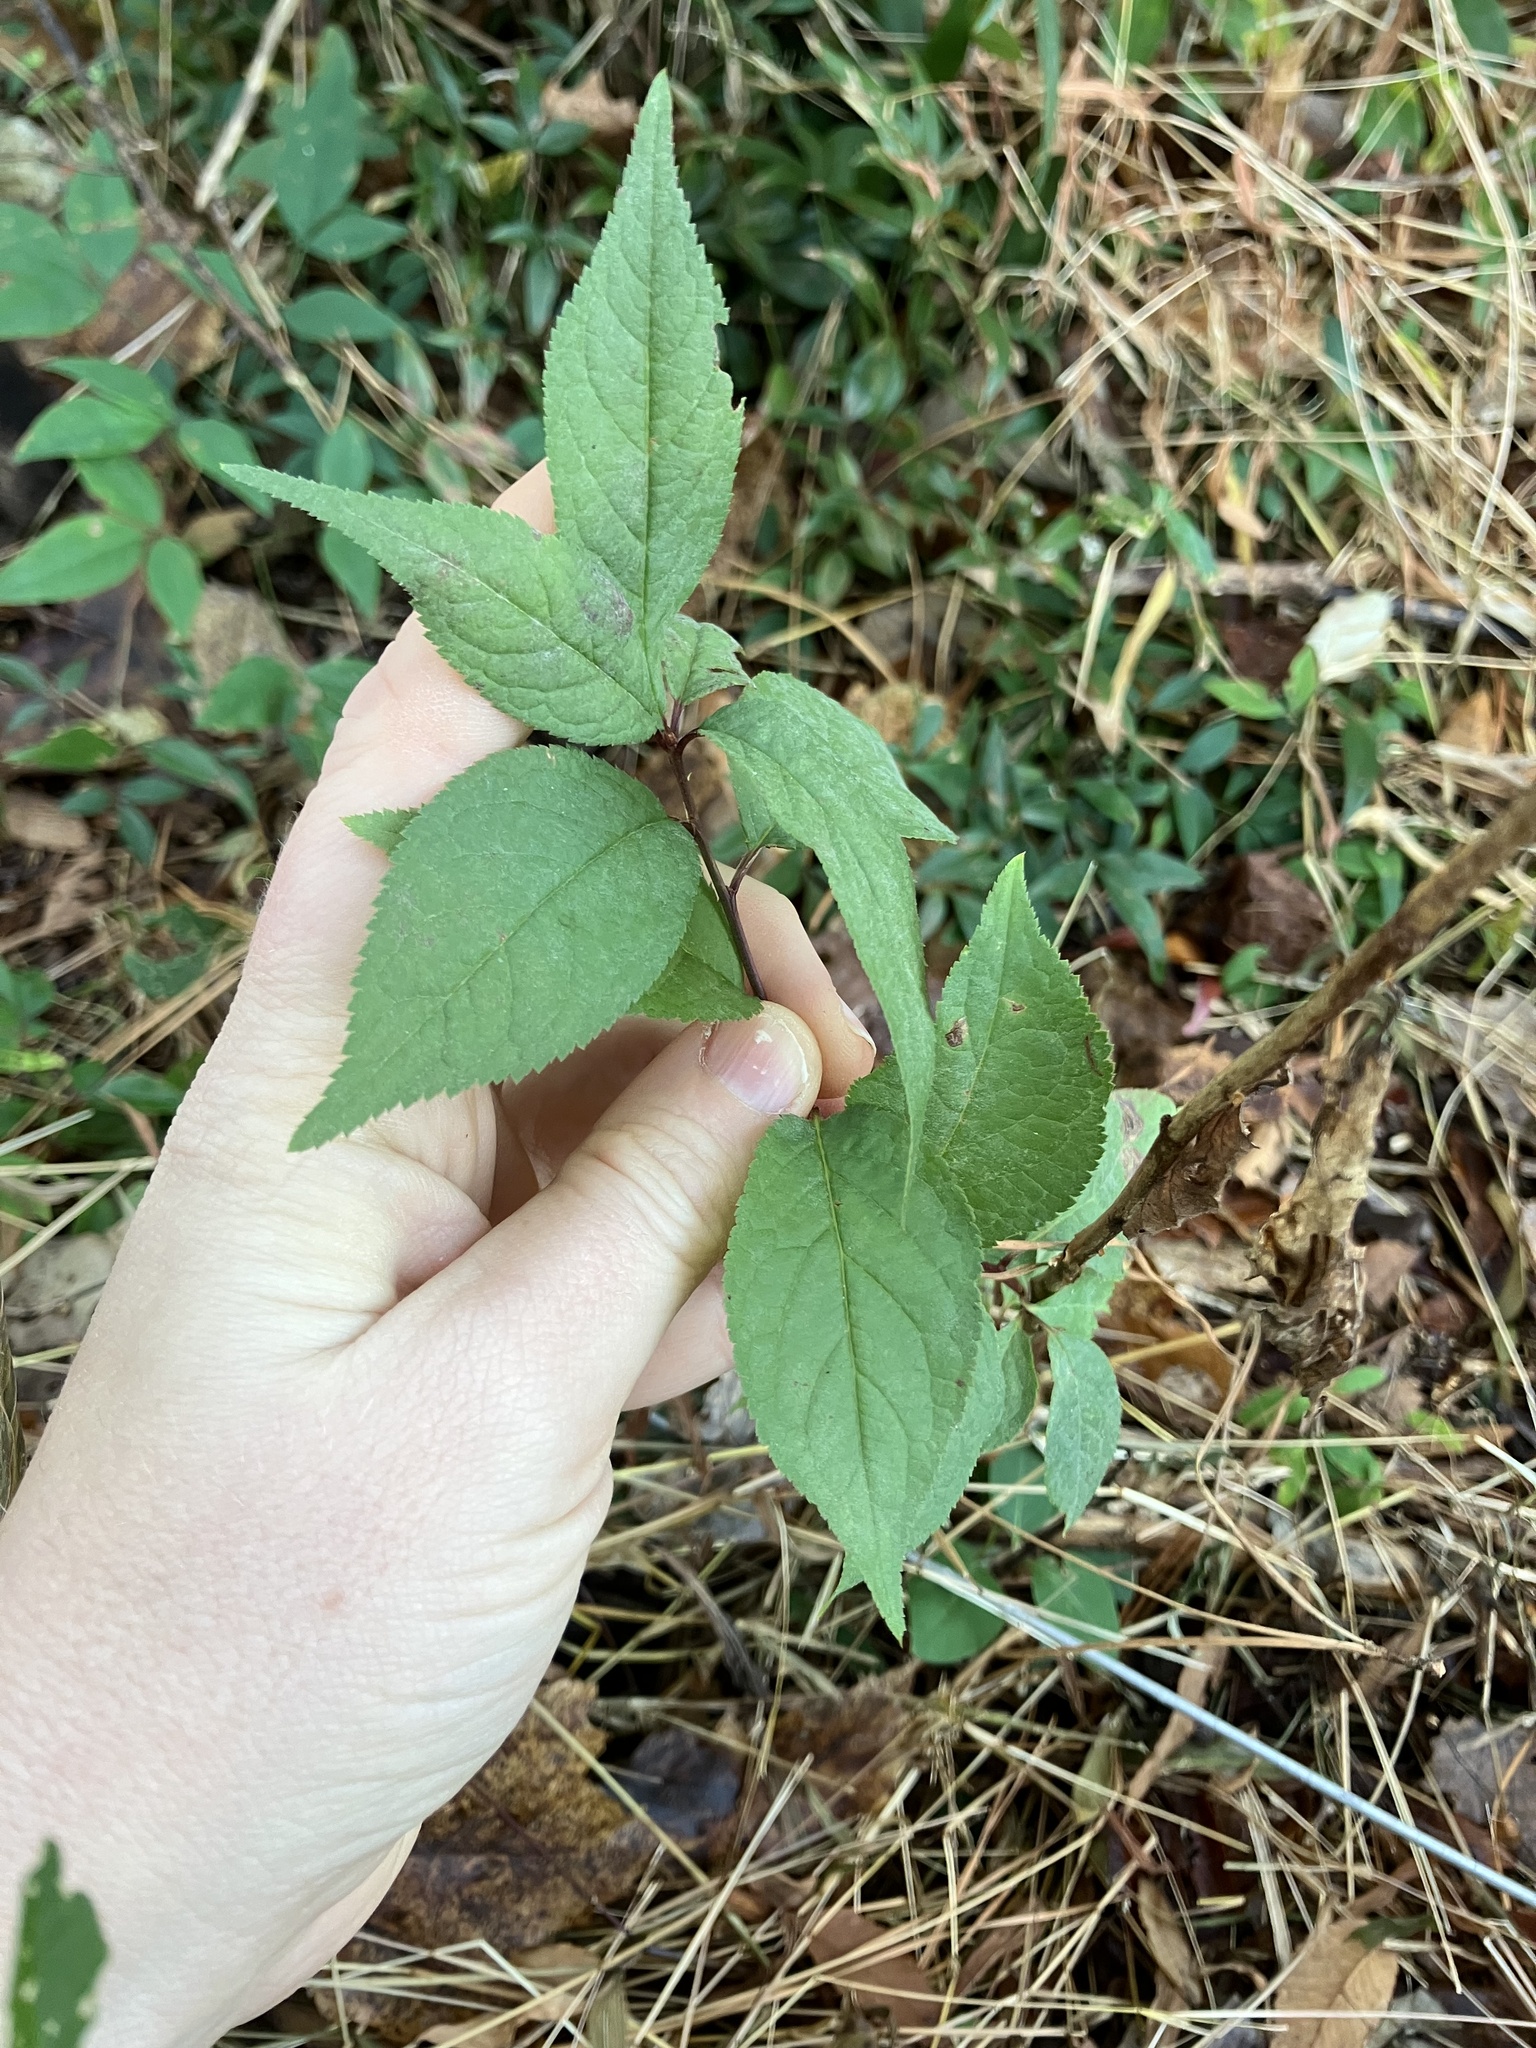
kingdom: Plantae
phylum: Tracheophyta
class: Magnoliopsida
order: Rosales
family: Rosaceae
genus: Prunus
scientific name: Prunus americana
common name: American plum
